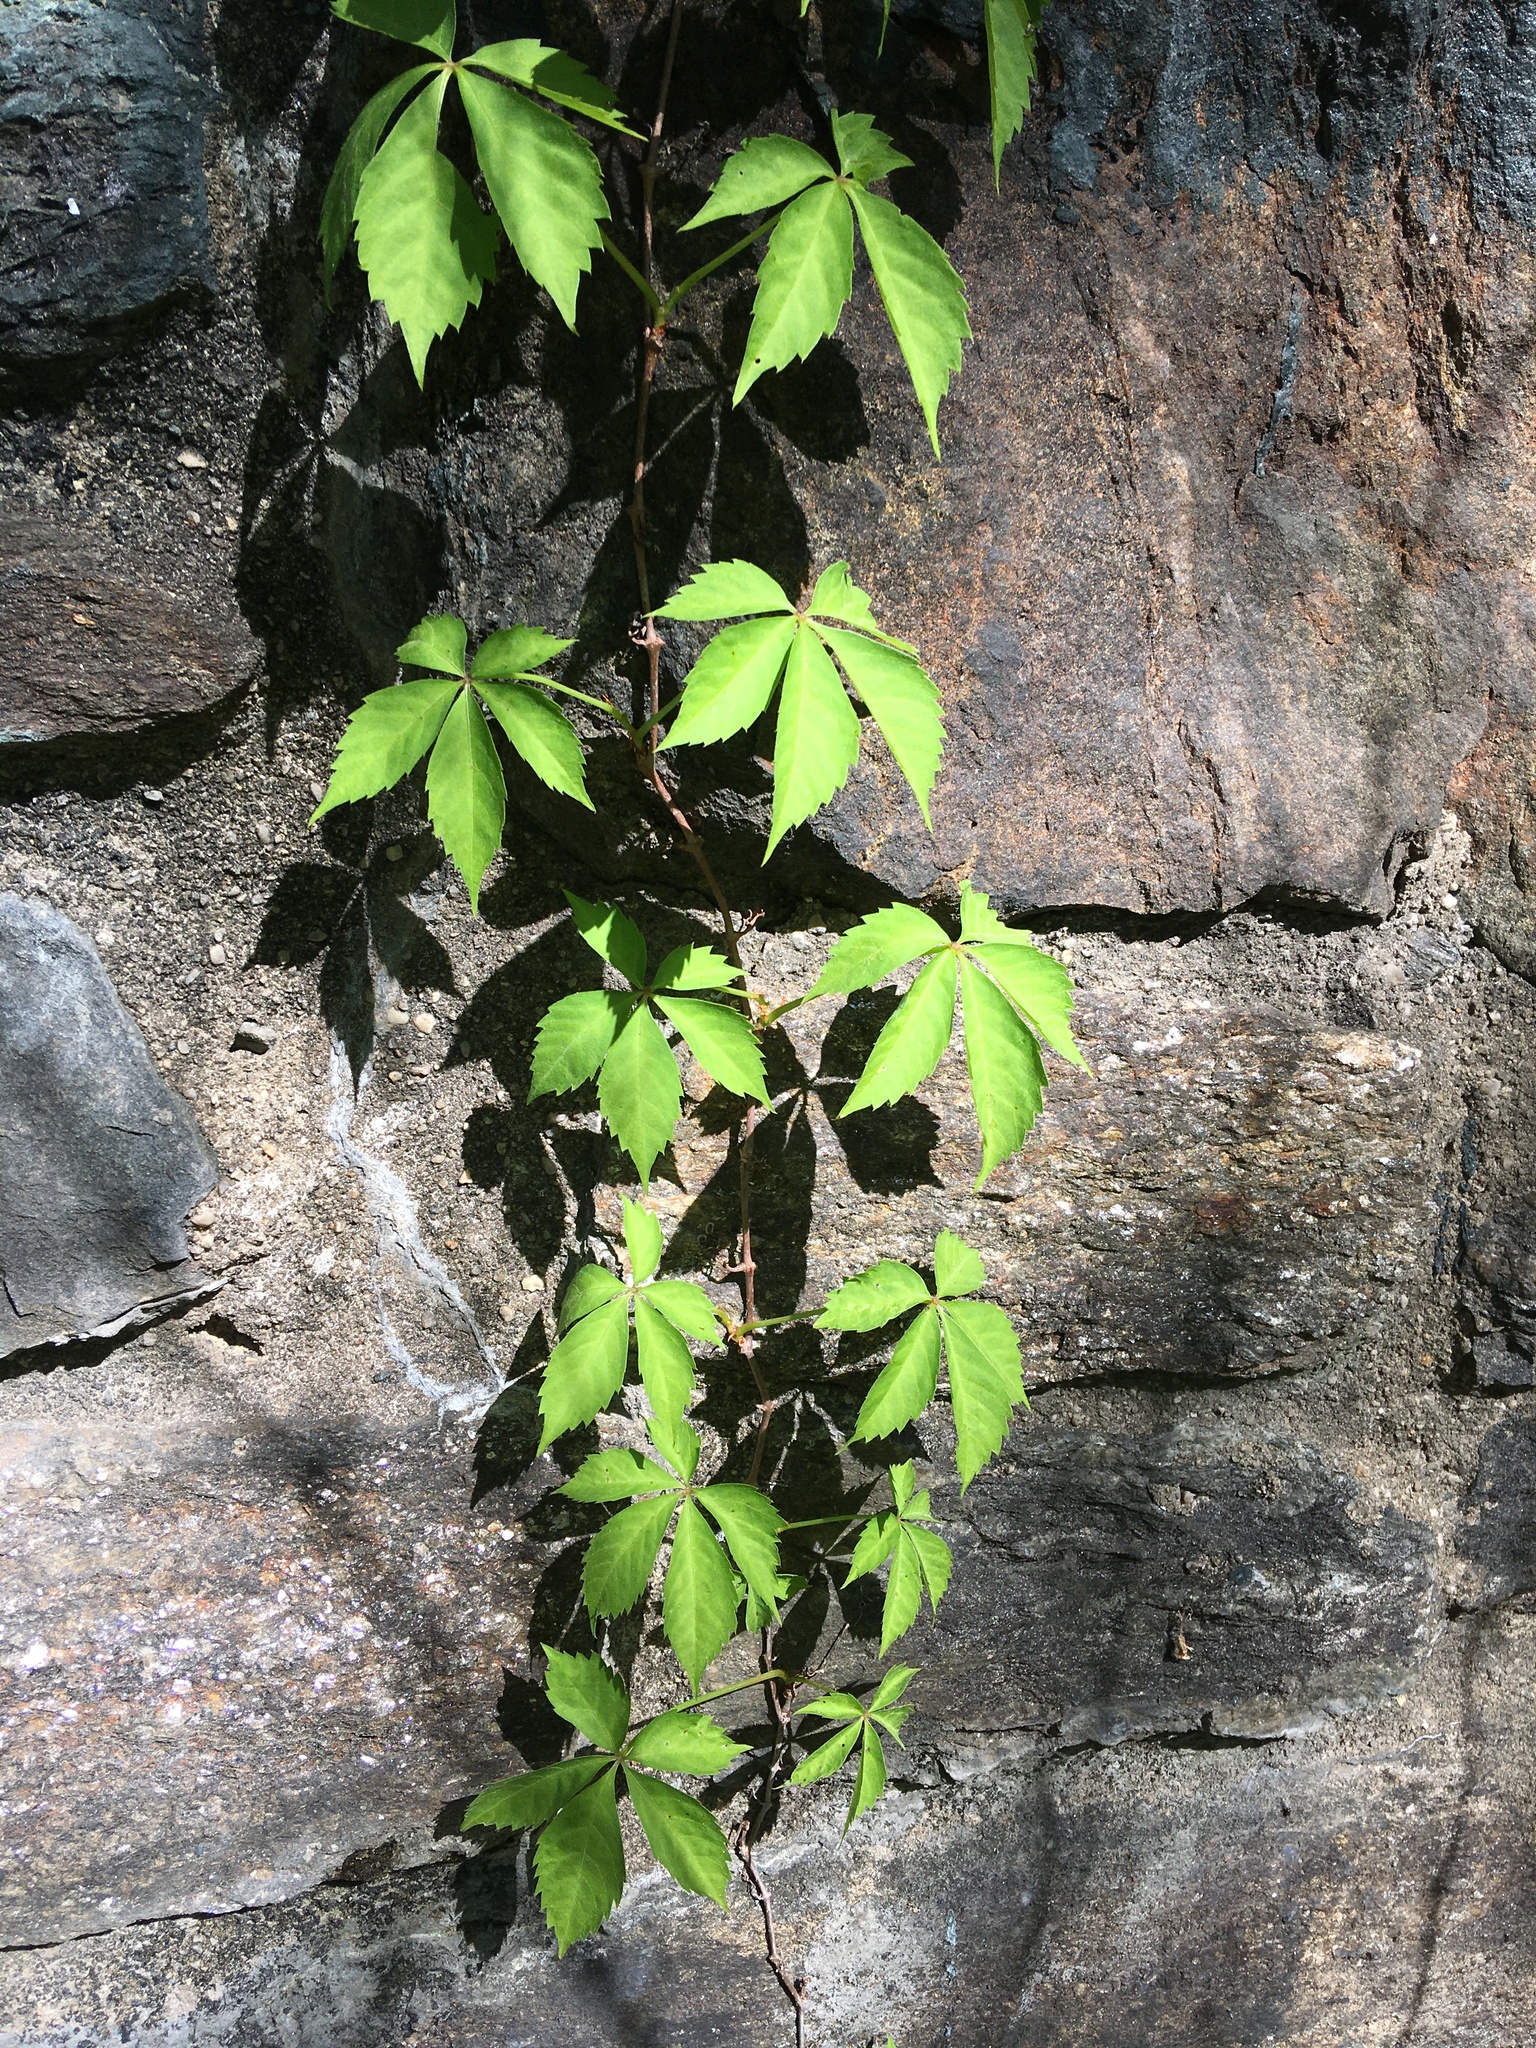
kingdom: Plantae
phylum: Tracheophyta
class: Magnoliopsida
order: Vitales
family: Vitaceae
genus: Parthenocissus
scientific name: Parthenocissus quinquefolia
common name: Virginia-creeper
